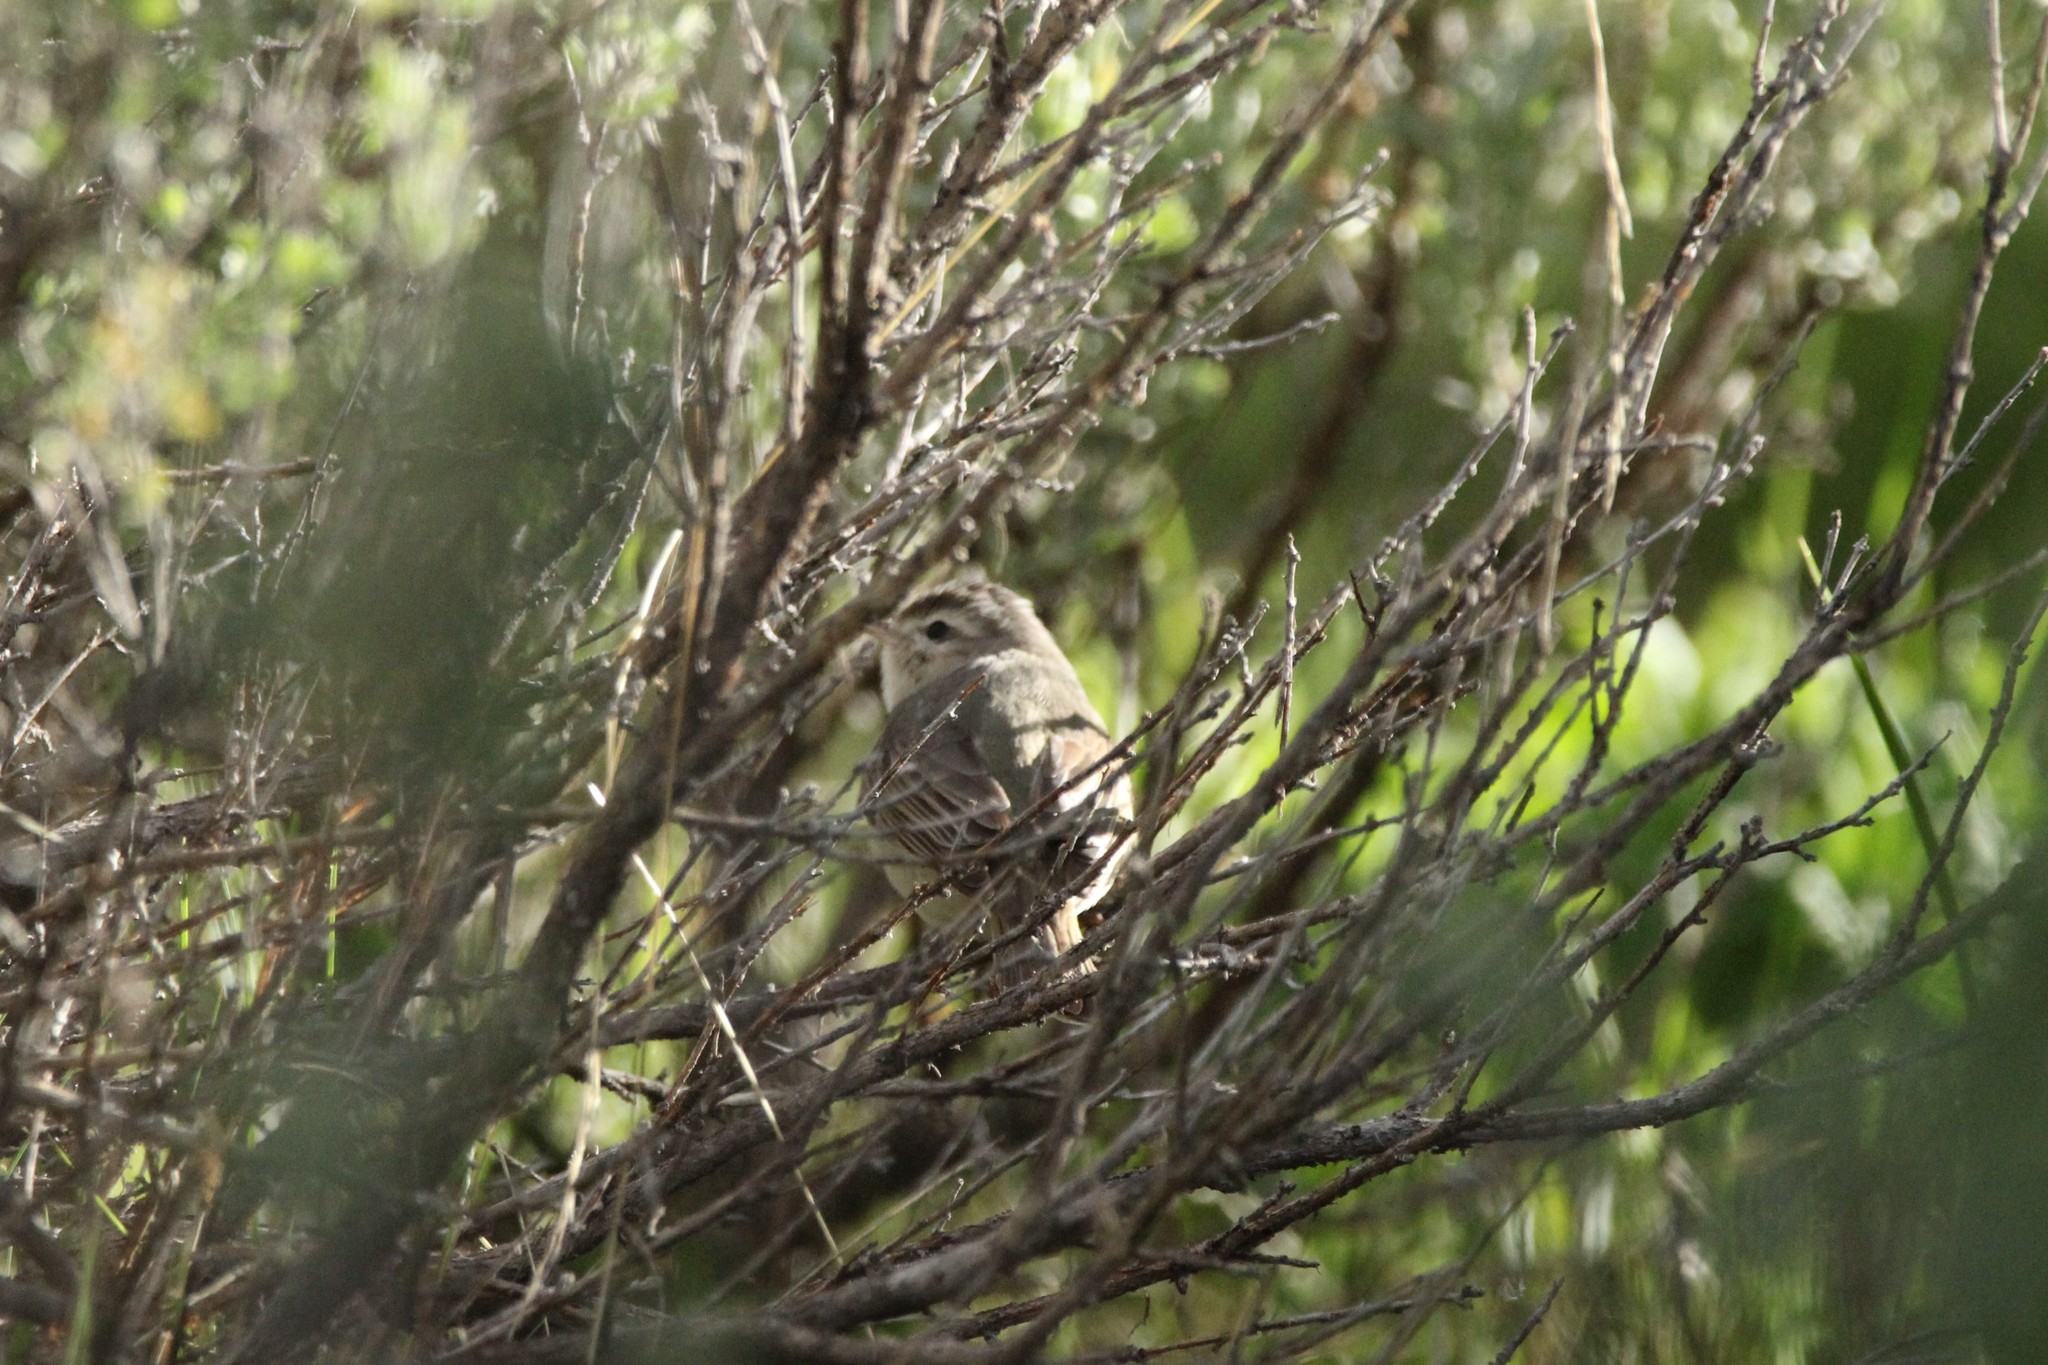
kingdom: Animalia
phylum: Chordata
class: Aves
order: Passeriformes
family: Vireonidae
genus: Vireo
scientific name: Vireo gilvus
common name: Warbling vireo
